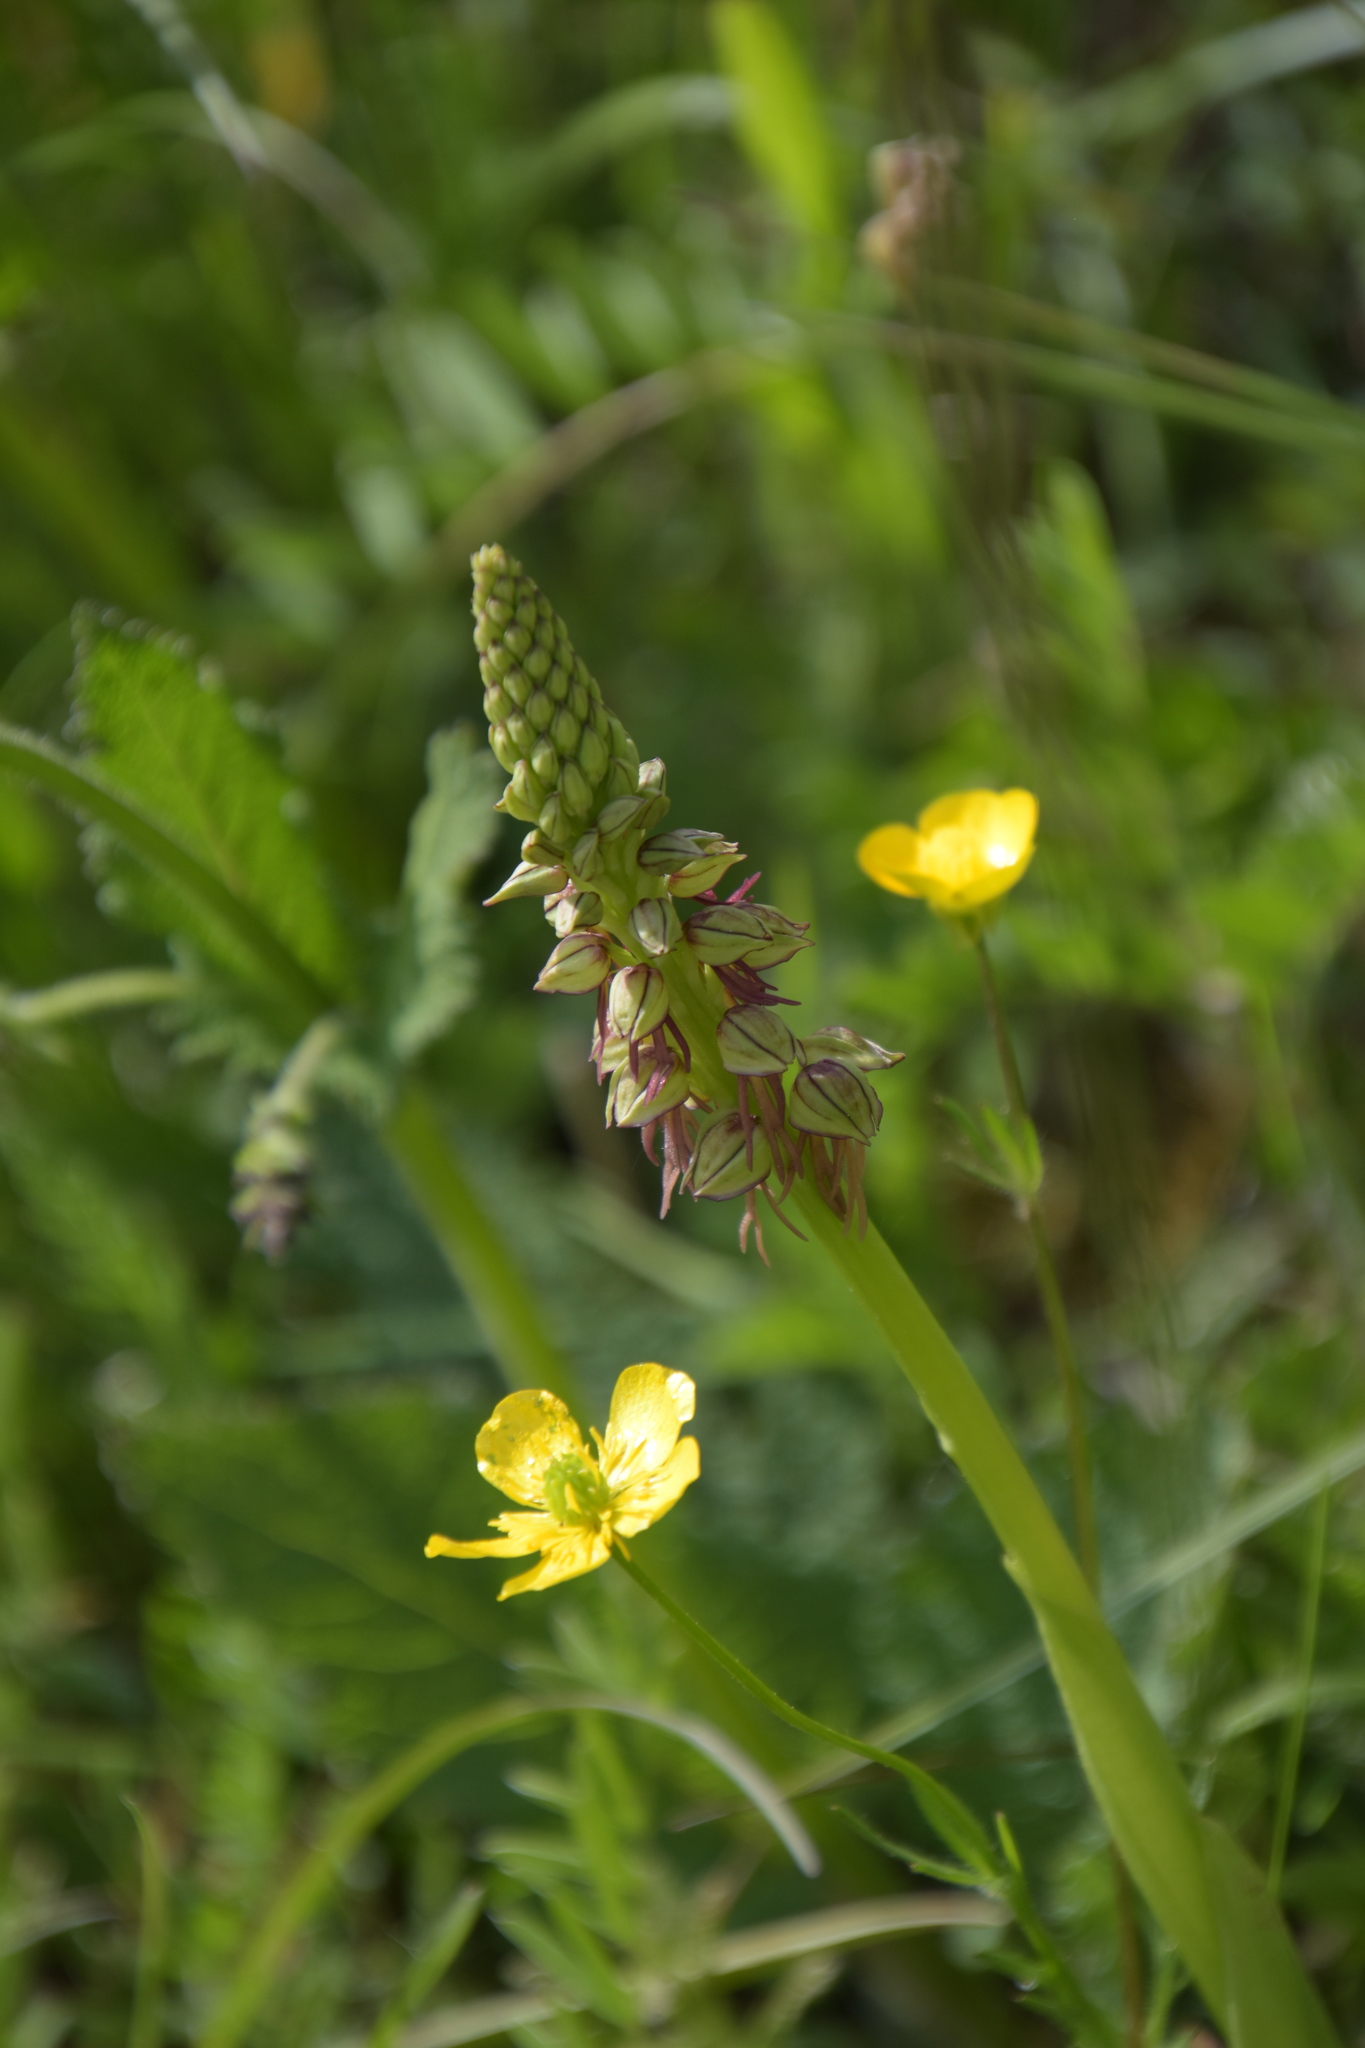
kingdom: Plantae
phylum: Tracheophyta
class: Liliopsida
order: Asparagales
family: Orchidaceae
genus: Orchis
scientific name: Orchis anthropophora
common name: Man orchid
